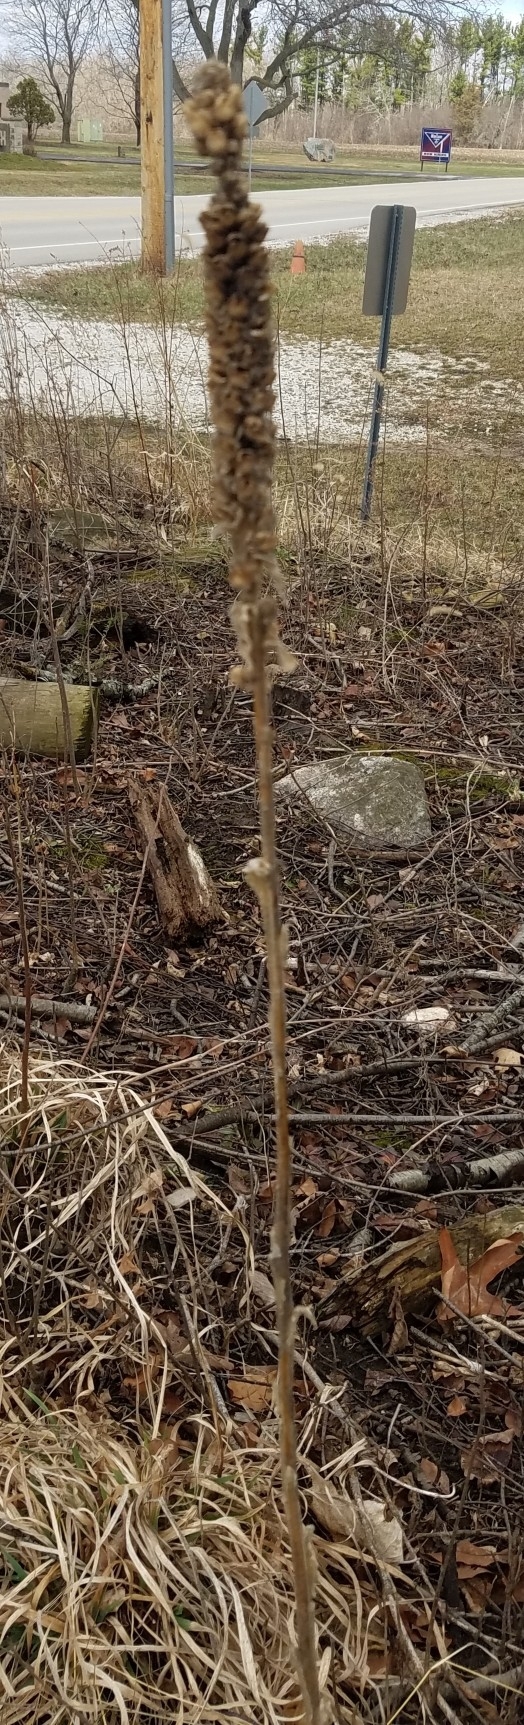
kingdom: Plantae
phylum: Tracheophyta
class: Magnoliopsida
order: Lamiales
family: Scrophulariaceae
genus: Verbascum
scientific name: Verbascum thapsus
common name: Common mullein
